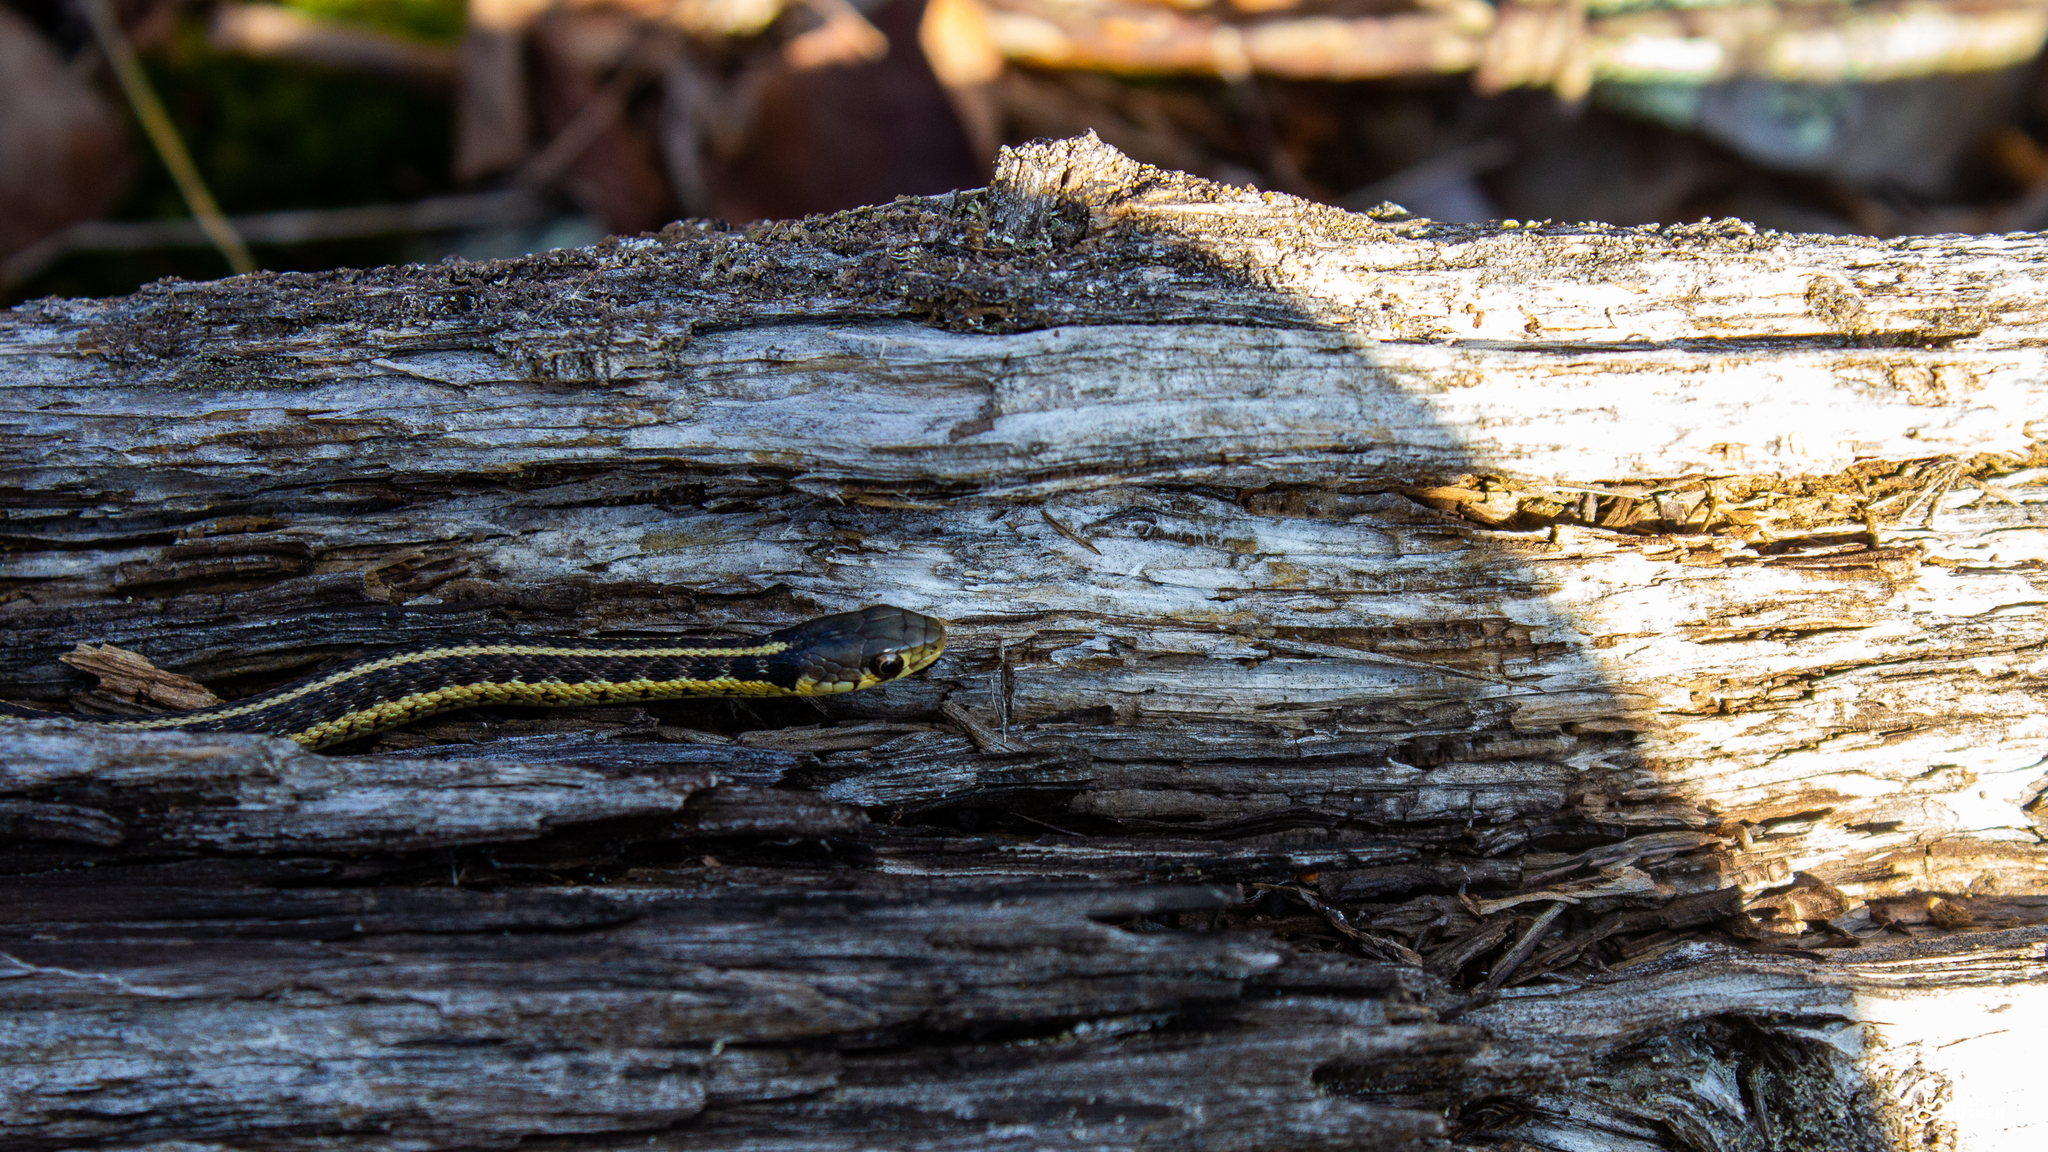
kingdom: Animalia
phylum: Chordata
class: Squamata
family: Colubridae
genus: Thamnophis
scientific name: Thamnophis sirtalis
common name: Common garter snake
